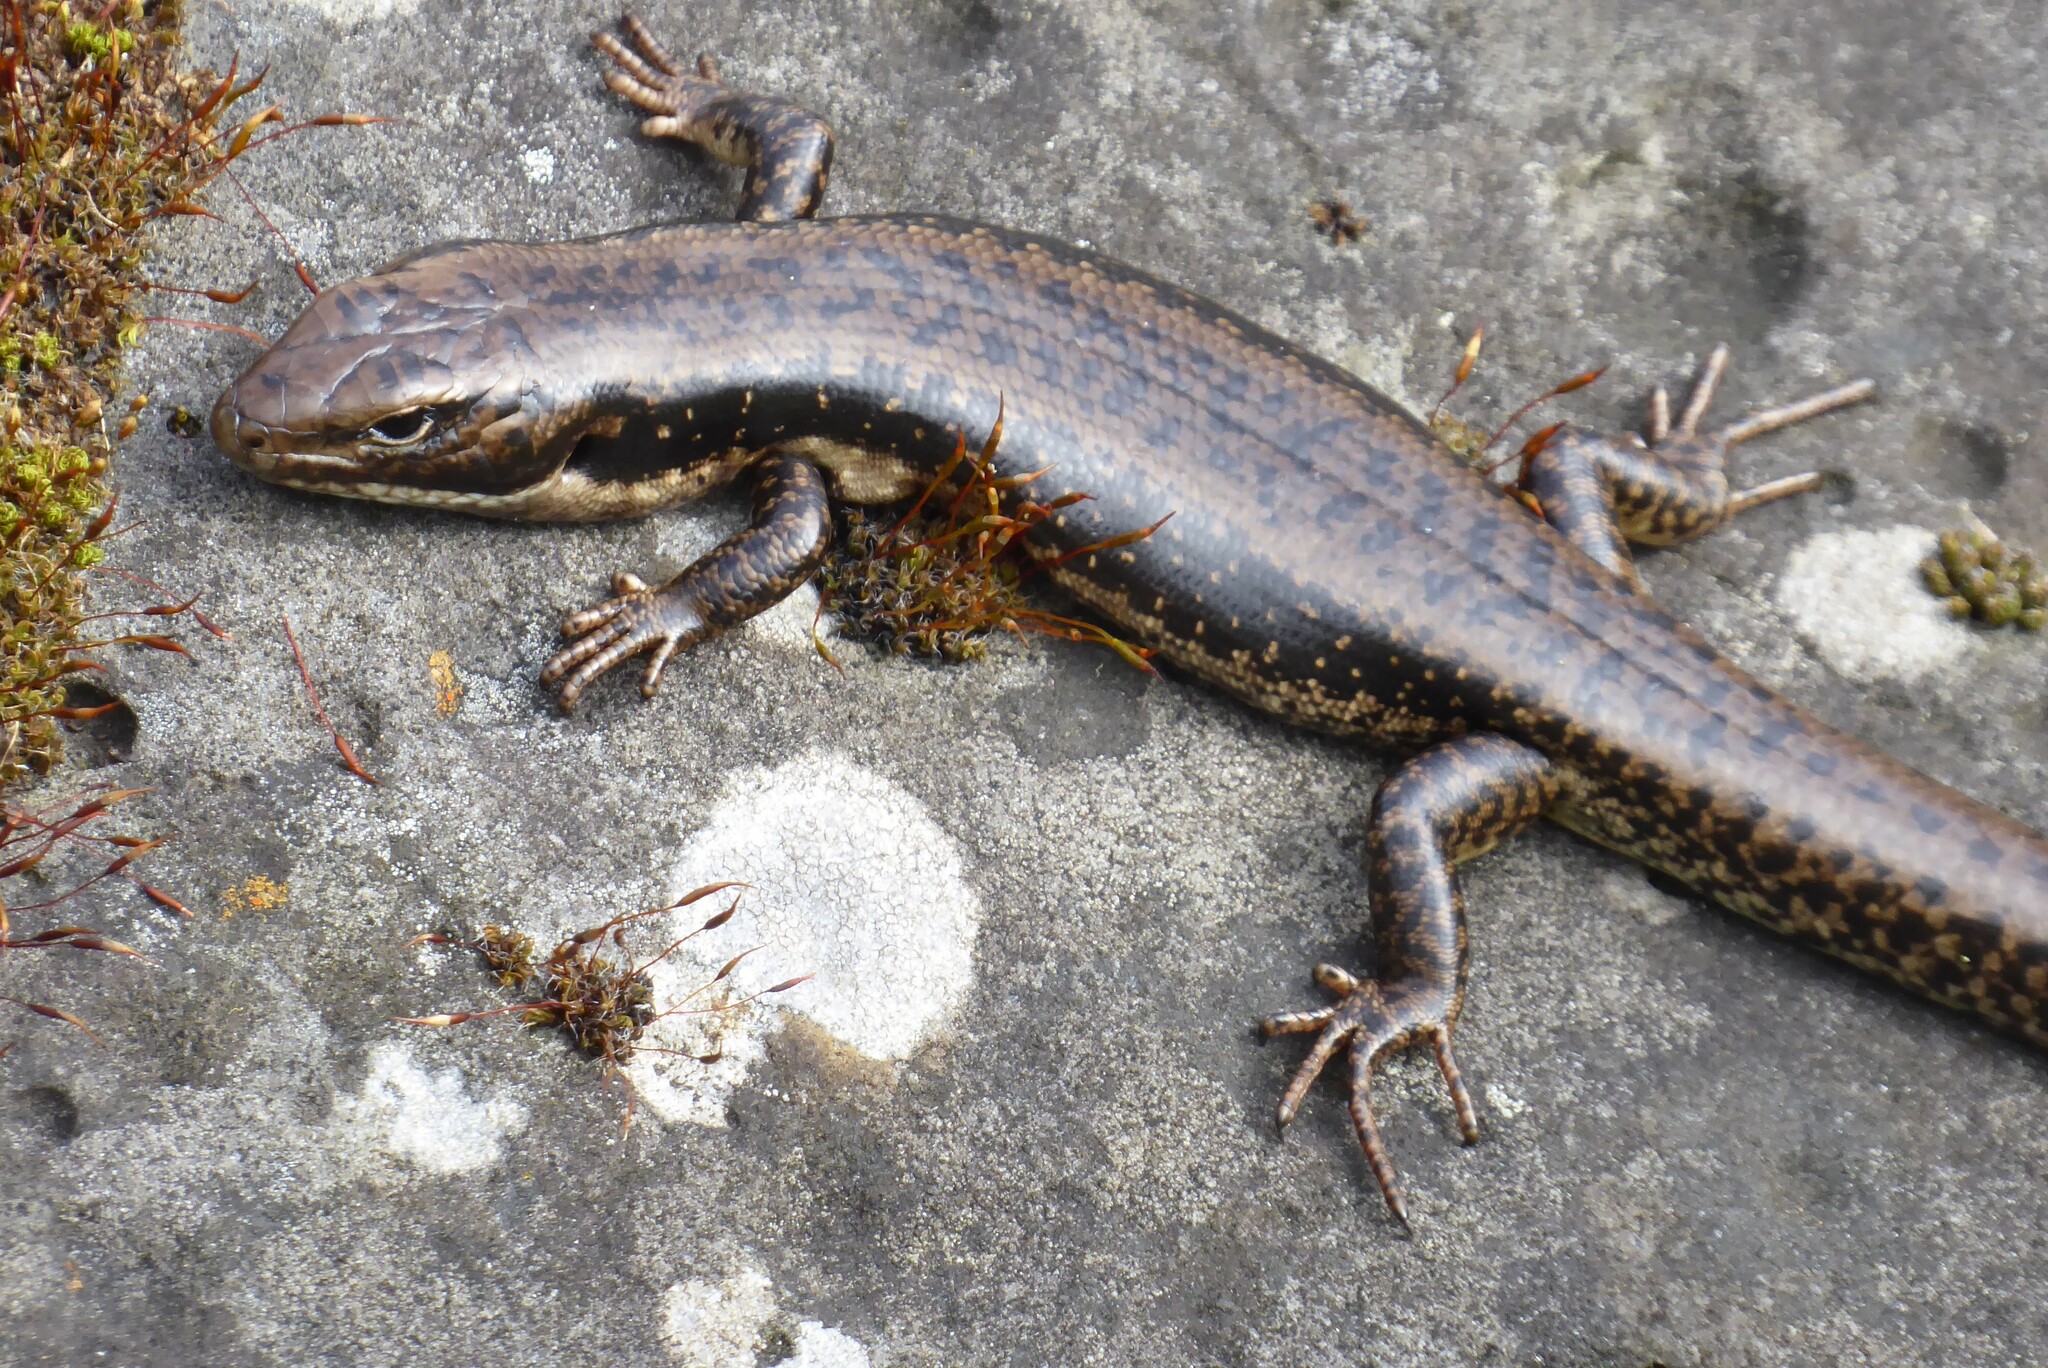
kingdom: Animalia
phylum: Chordata
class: Squamata
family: Scincidae
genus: Eulamprus
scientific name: Eulamprus tympanum
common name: Cool-temperate water-skink
